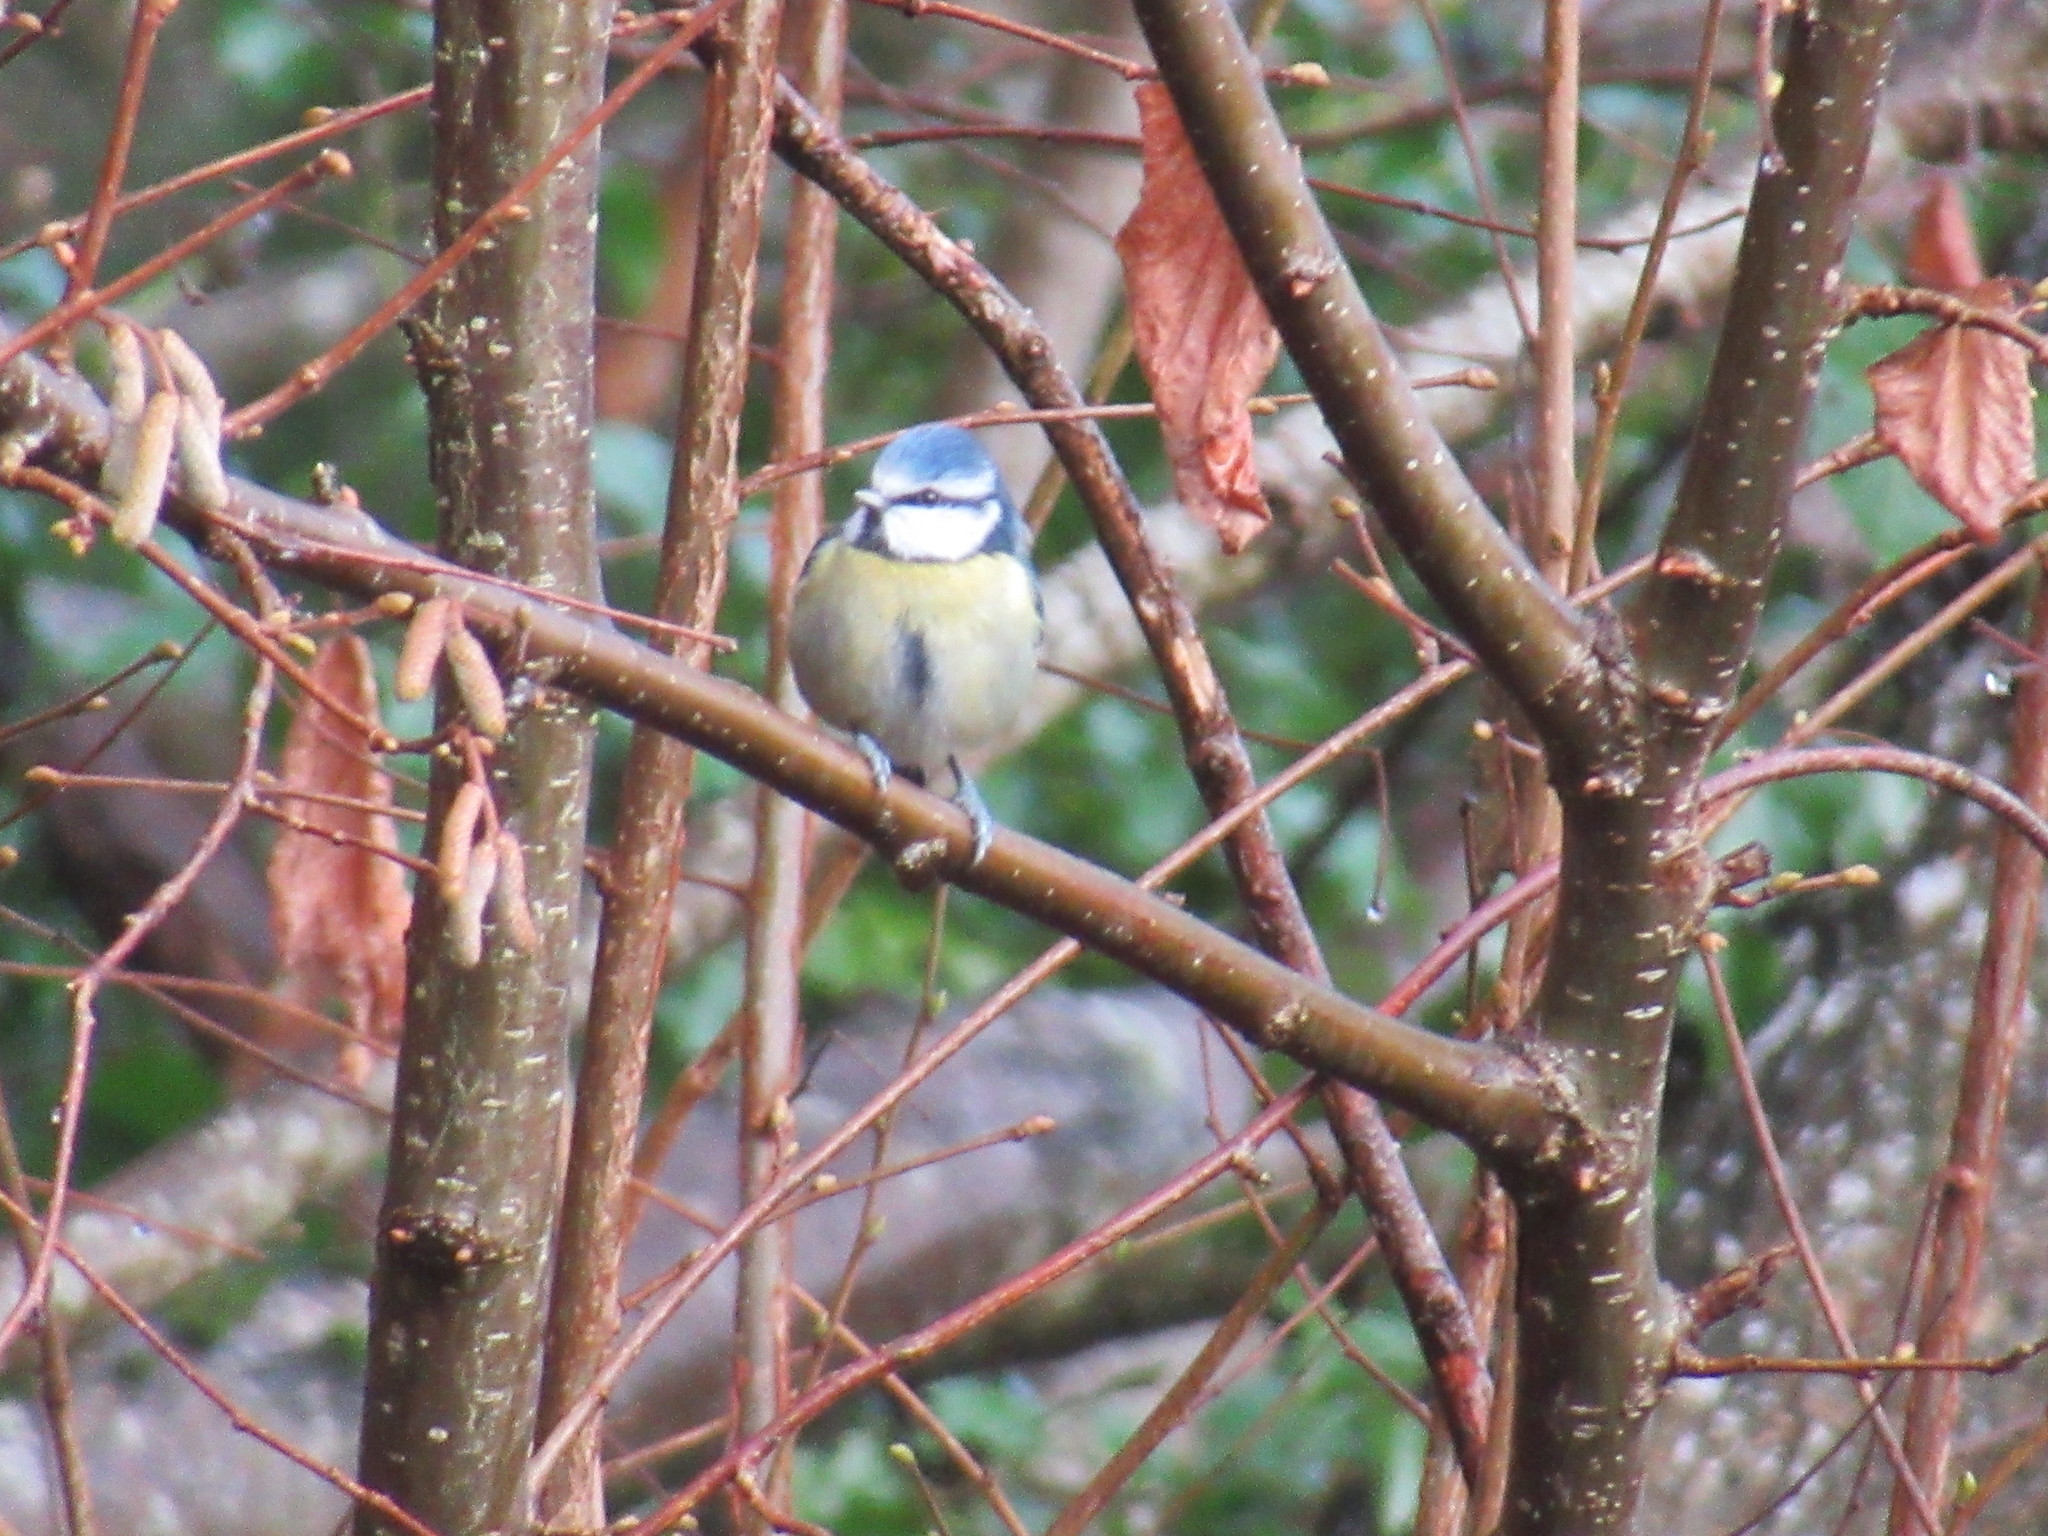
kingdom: Animalia
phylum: Chordata
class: Aves
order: Passeriformes
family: Paridae
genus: Cyanistes
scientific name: Cyanistes caeruleus
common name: Eurasian blue tit
